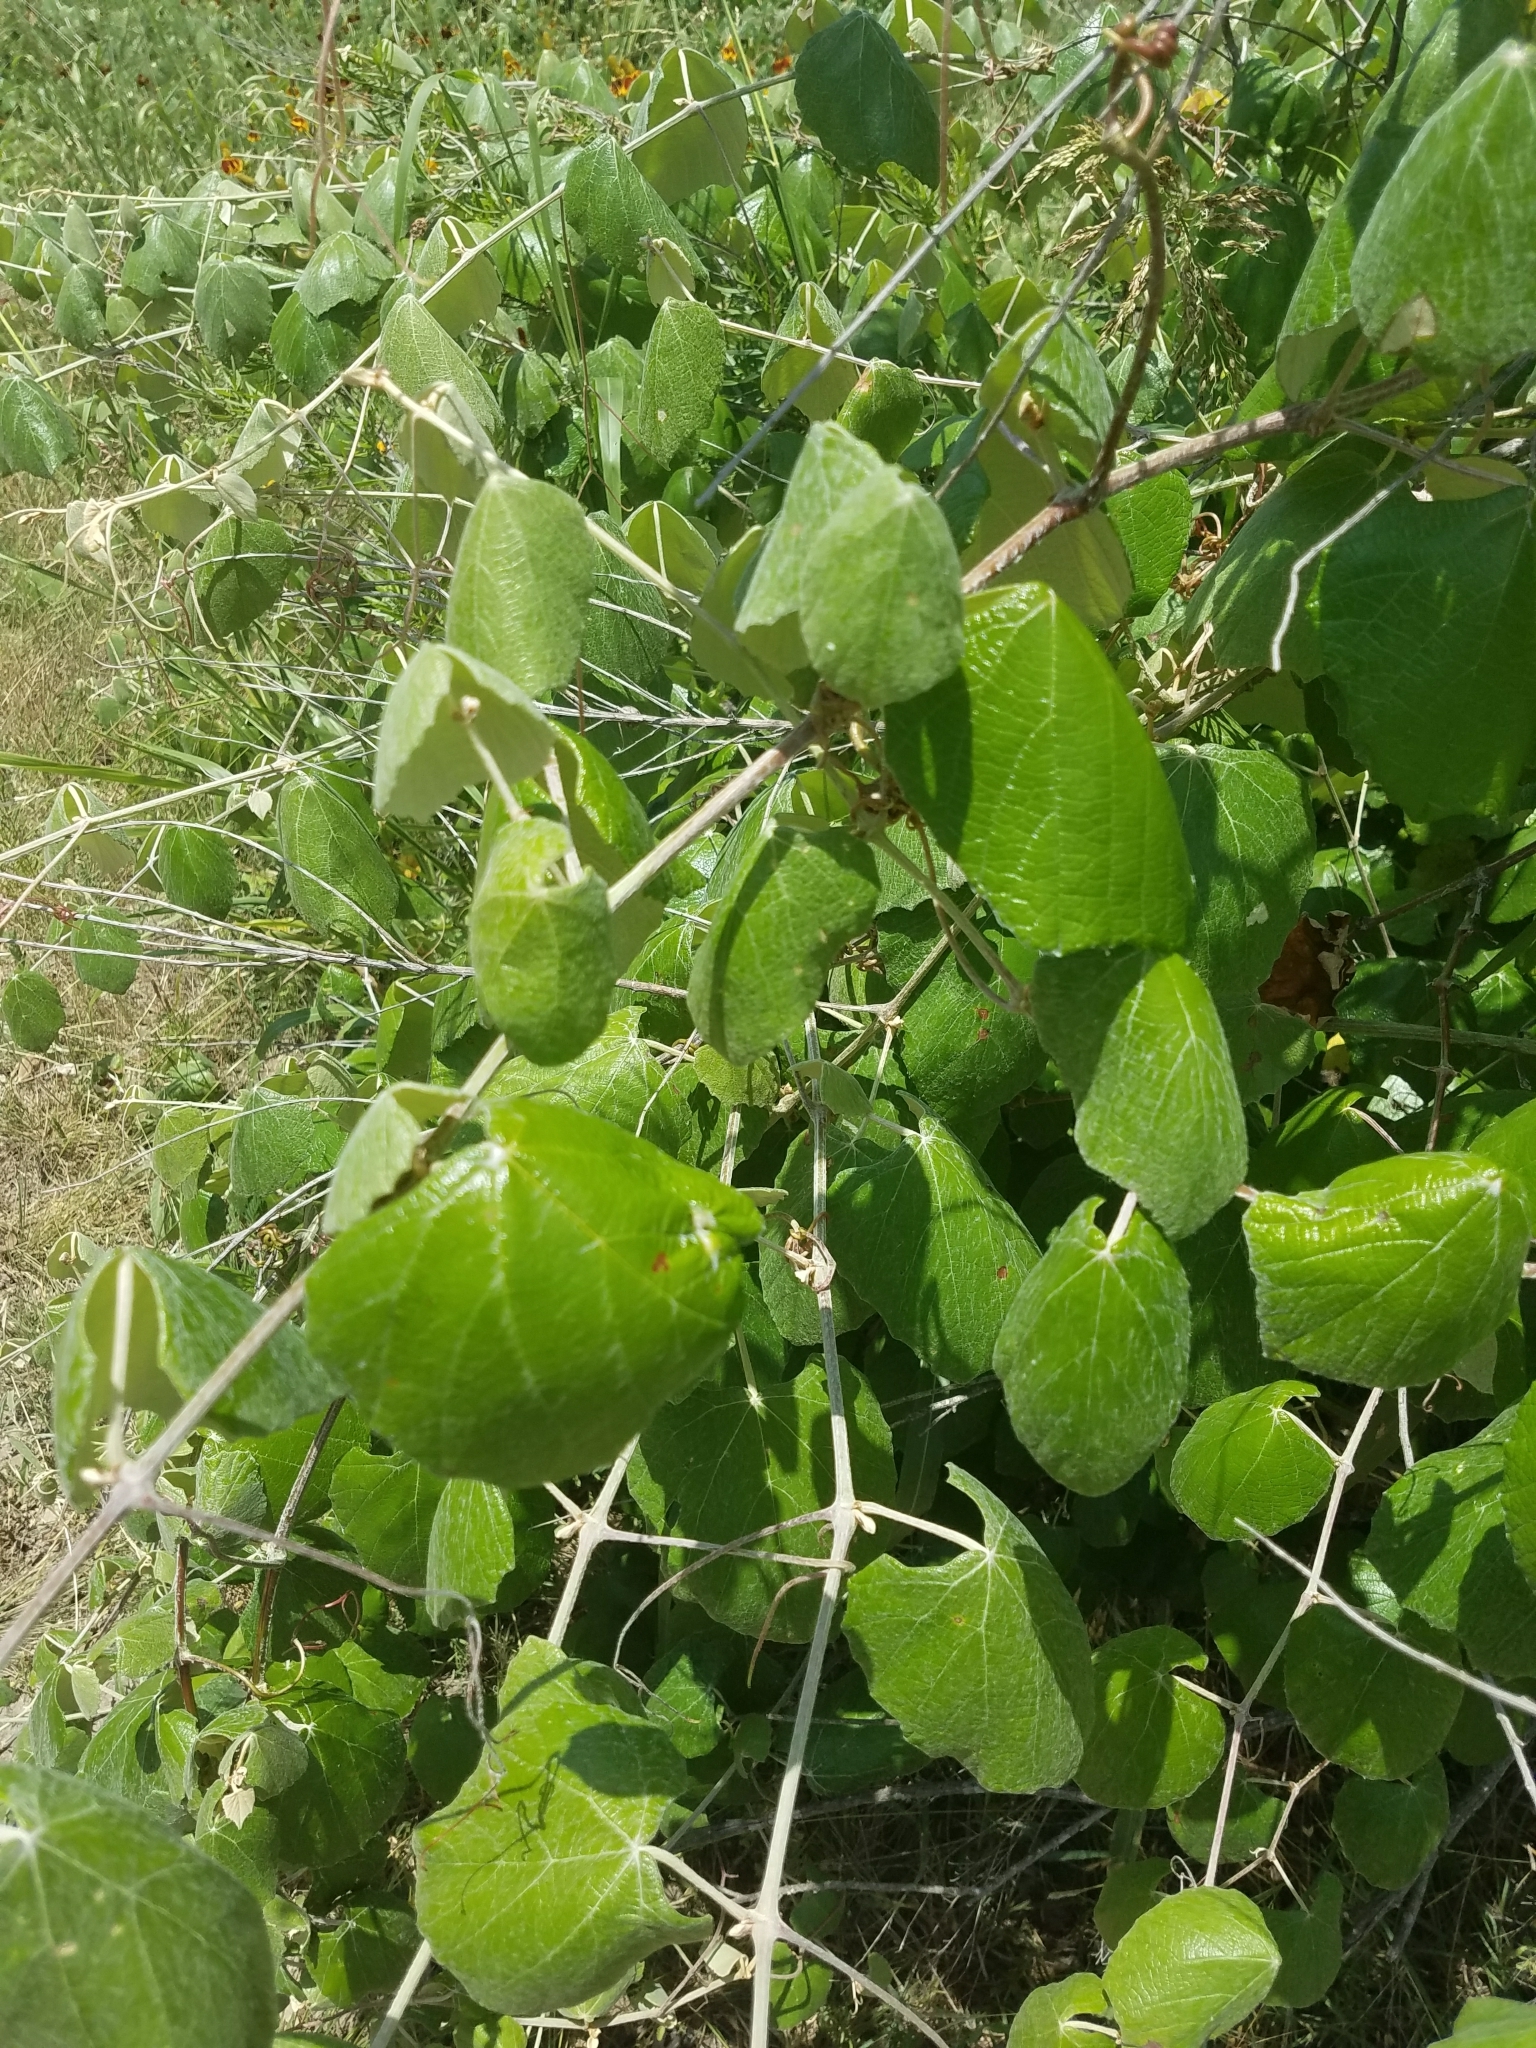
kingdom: Plantae
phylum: Tracheophyta
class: Magnoliopsida
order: Vitales
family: Vitaceae
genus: Vitis
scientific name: Vitis mustangensis
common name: Mustang grape
